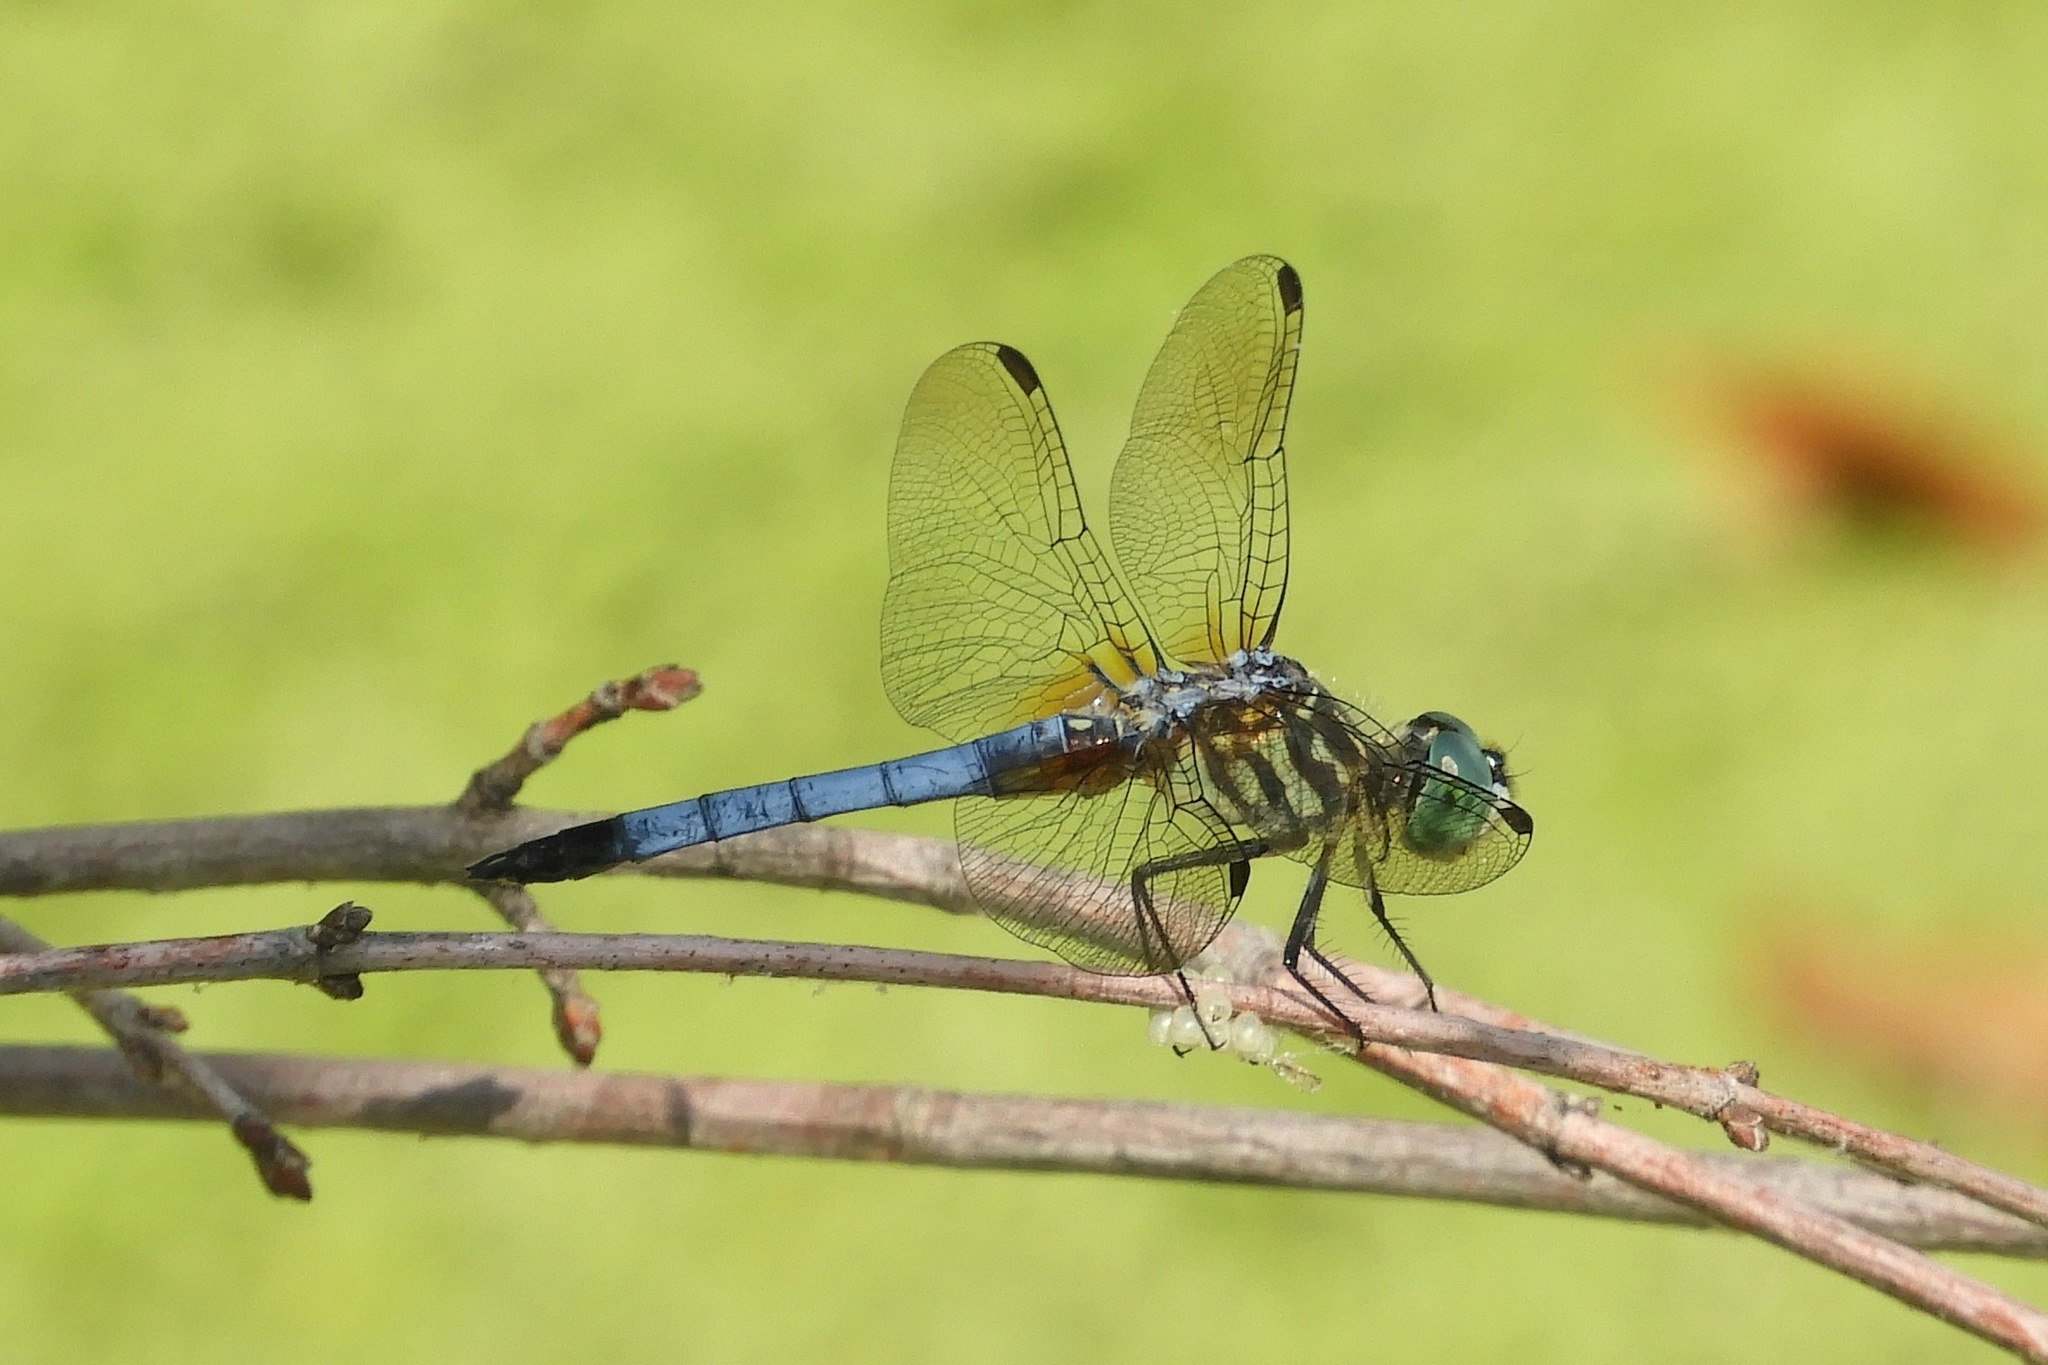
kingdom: Animalia
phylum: Arthropoda
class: Insecta
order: Odonata
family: Libellulidae
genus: Pachydiplax
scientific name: Pachydiplax longipennis
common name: Blue dasher
